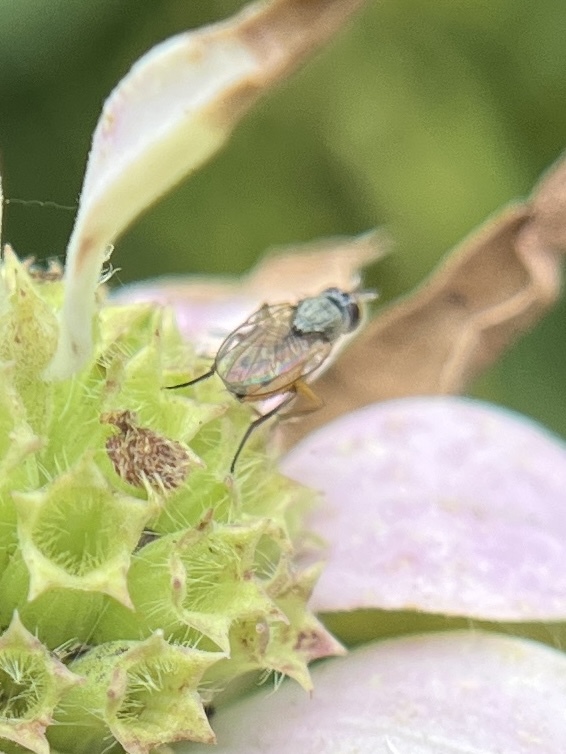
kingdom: Animalia
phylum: Arthropoda
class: Insecta
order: Diptera
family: Muscidae
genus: Atherigona
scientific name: Atherigona reversura
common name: Bermudagrass stem maggot
